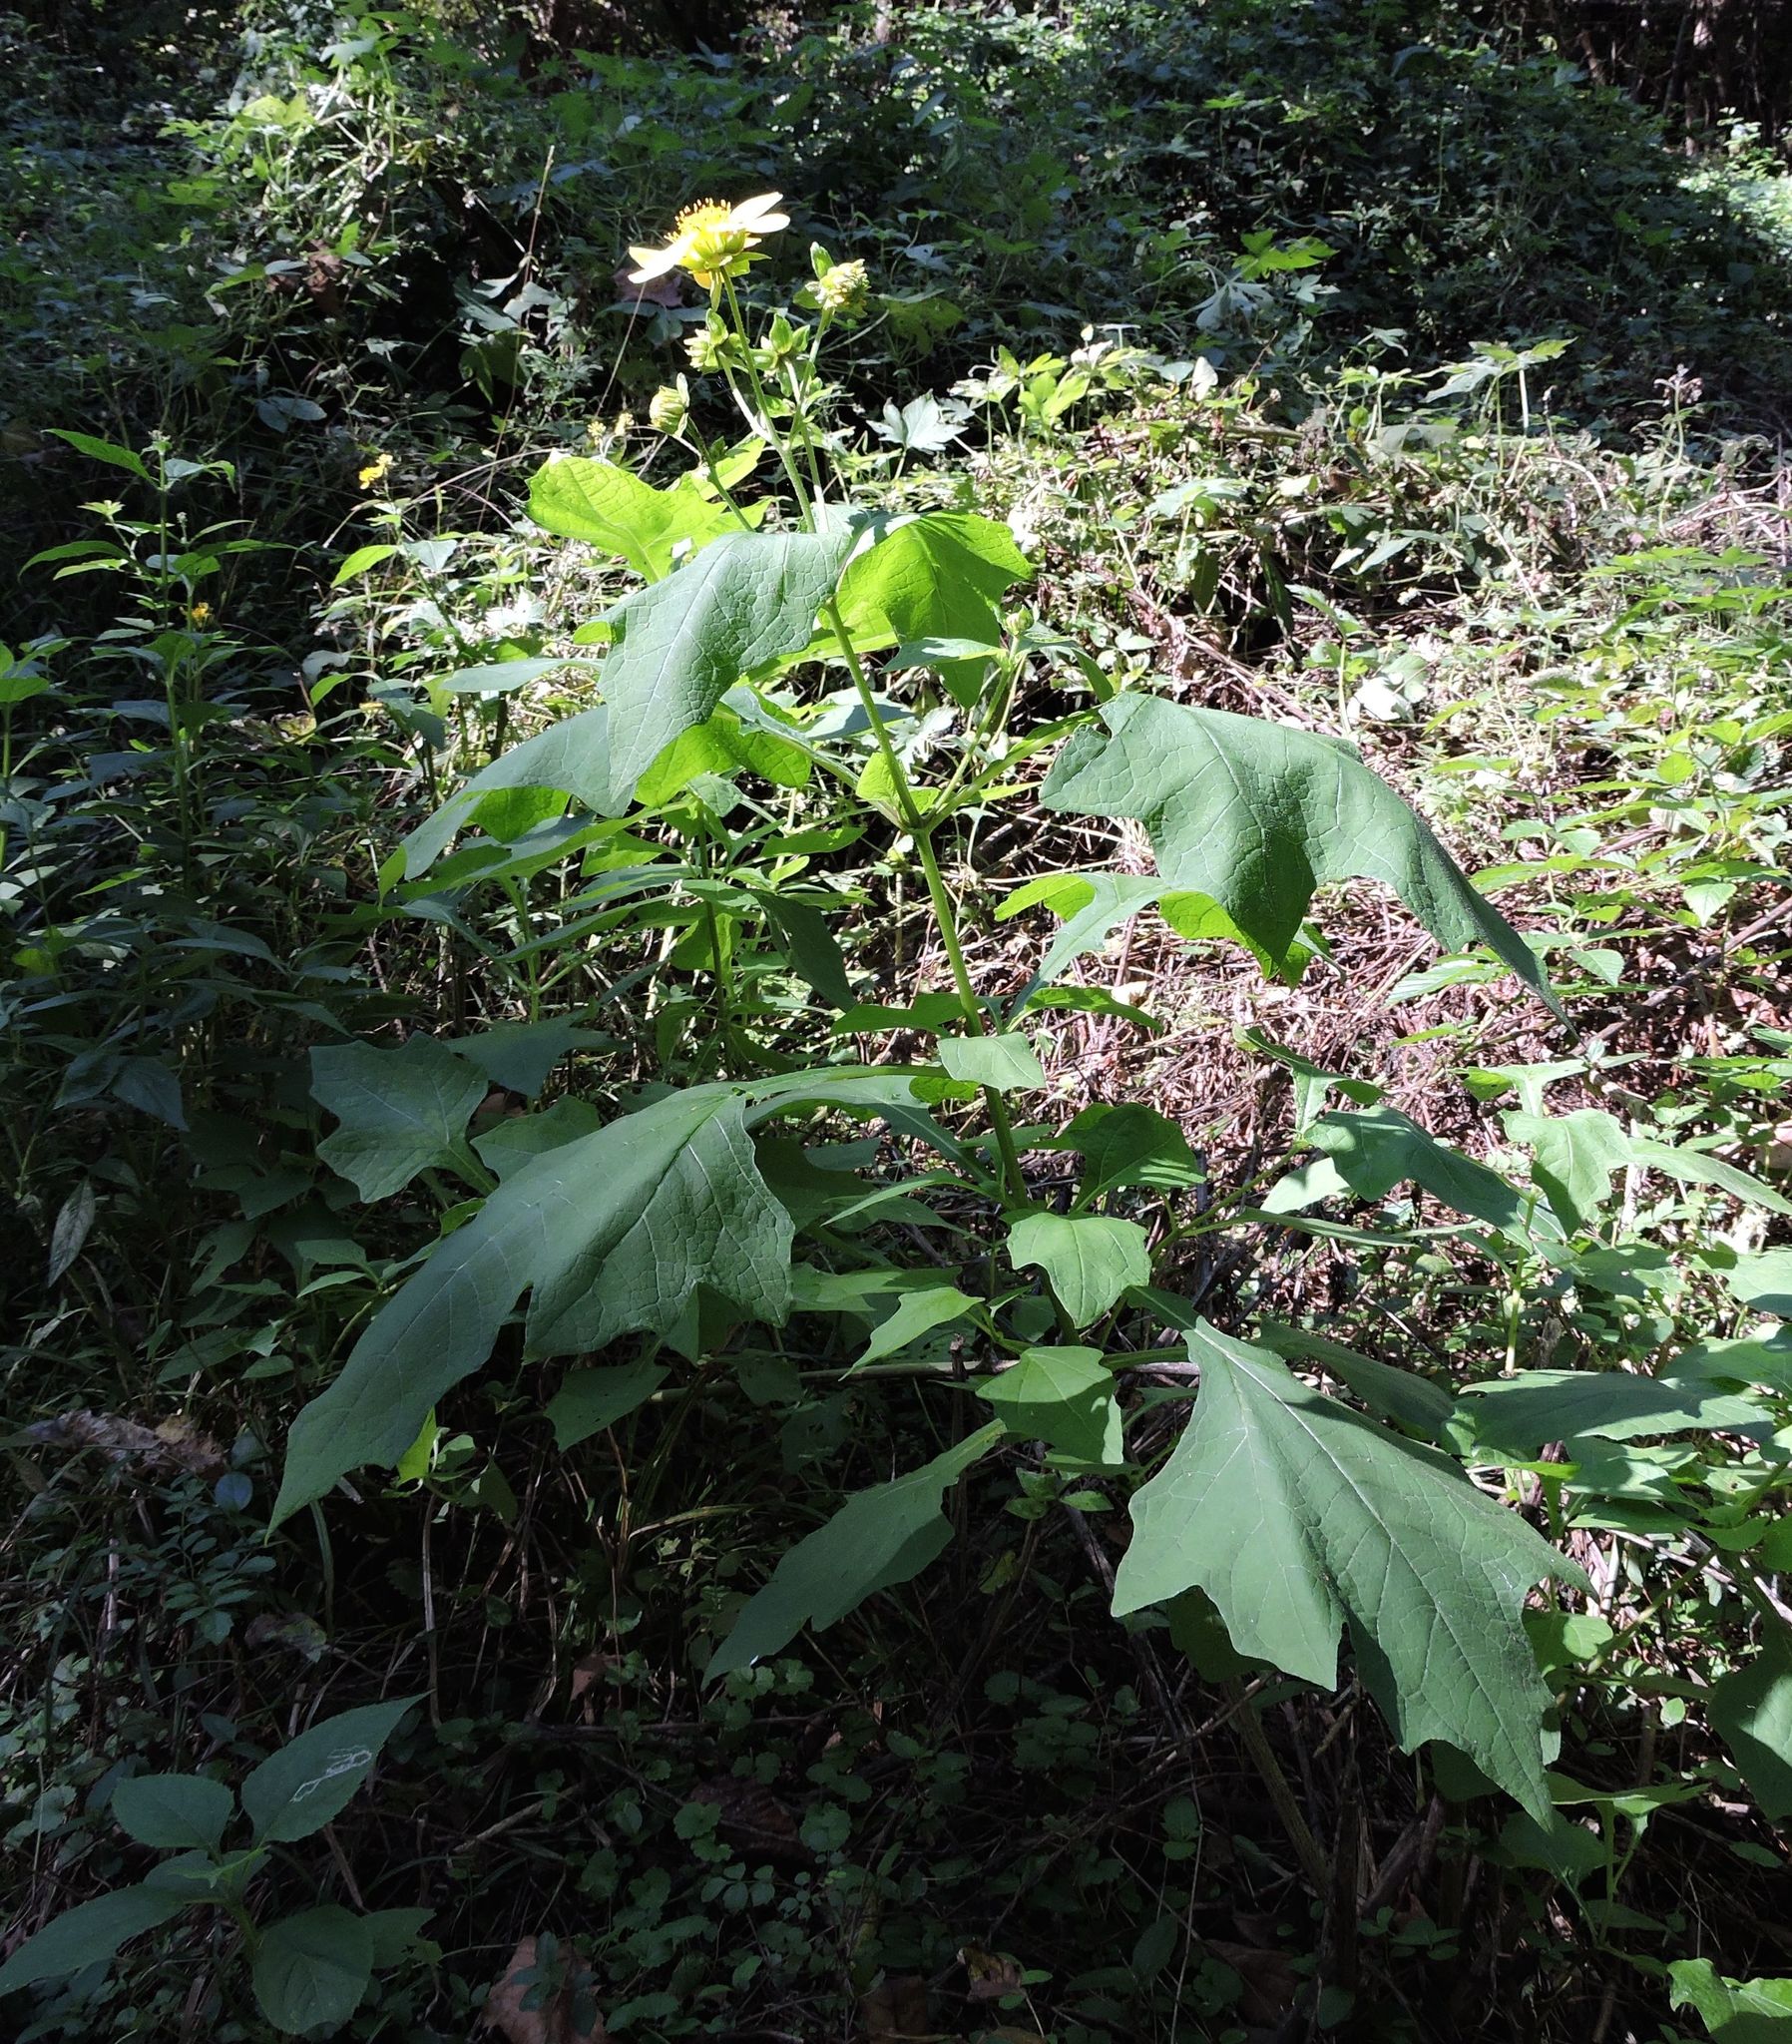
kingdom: Plantae
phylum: Tracheophyta
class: Magnoliopsida
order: Asterales
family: Asteraceae
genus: Smallanthus
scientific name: Smallanthus uvedalia
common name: Bear's-foot
